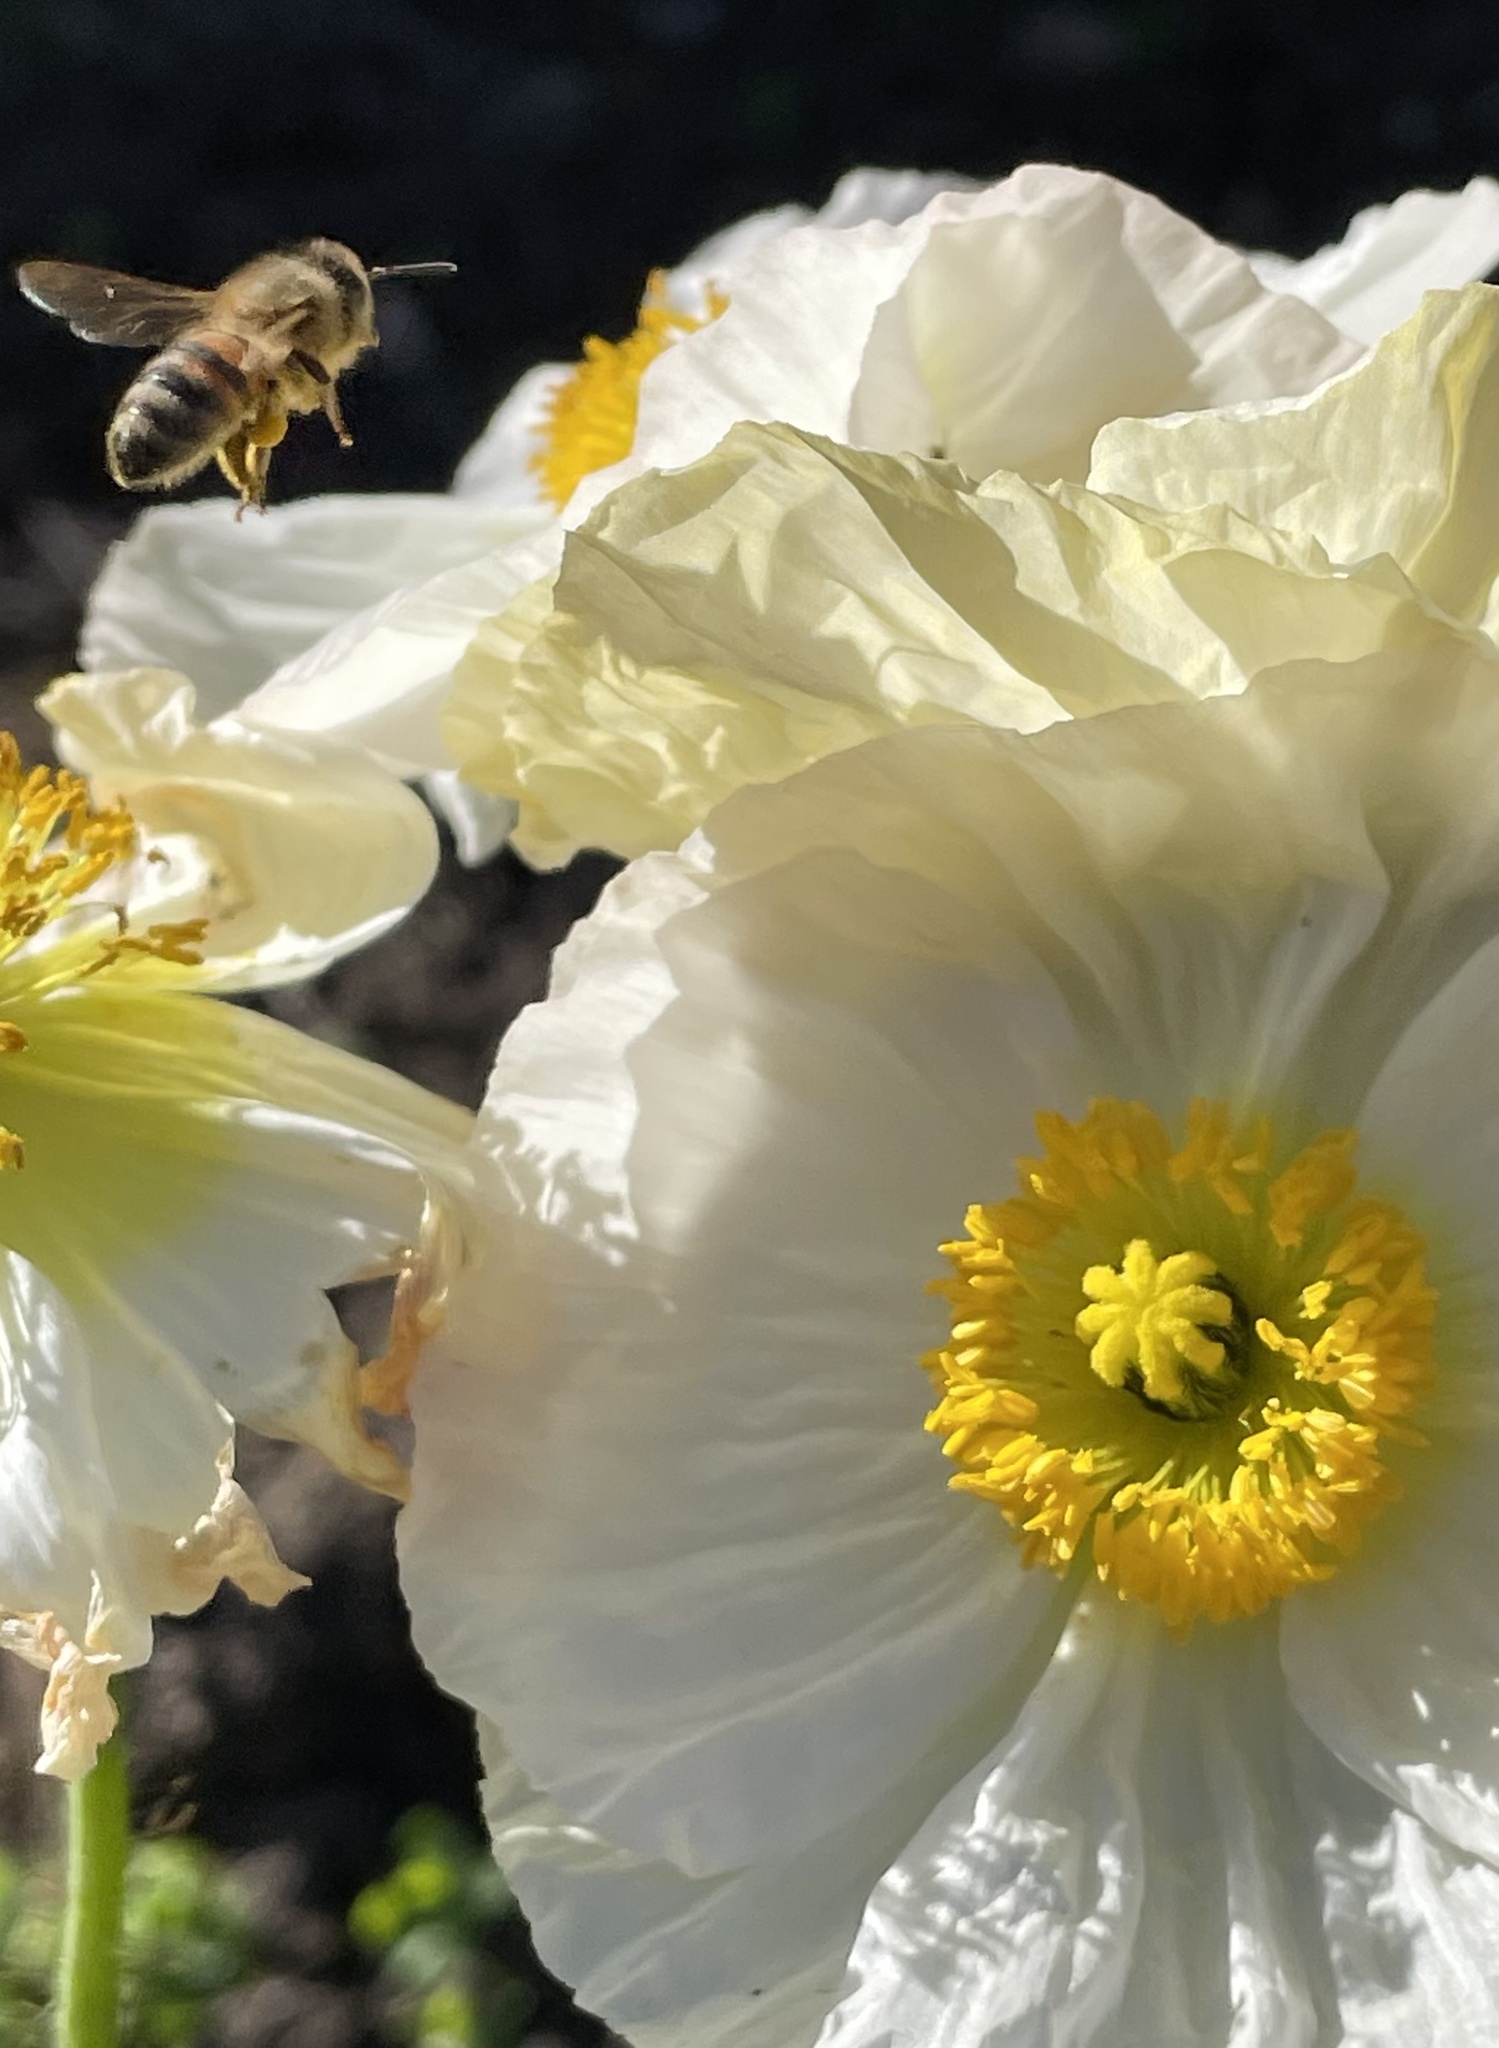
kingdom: Animalia
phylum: Arthropoda
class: Insecta
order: Hymenoptera
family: Apidae
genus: Apis
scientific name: Apis mellifera
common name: Honey bee
